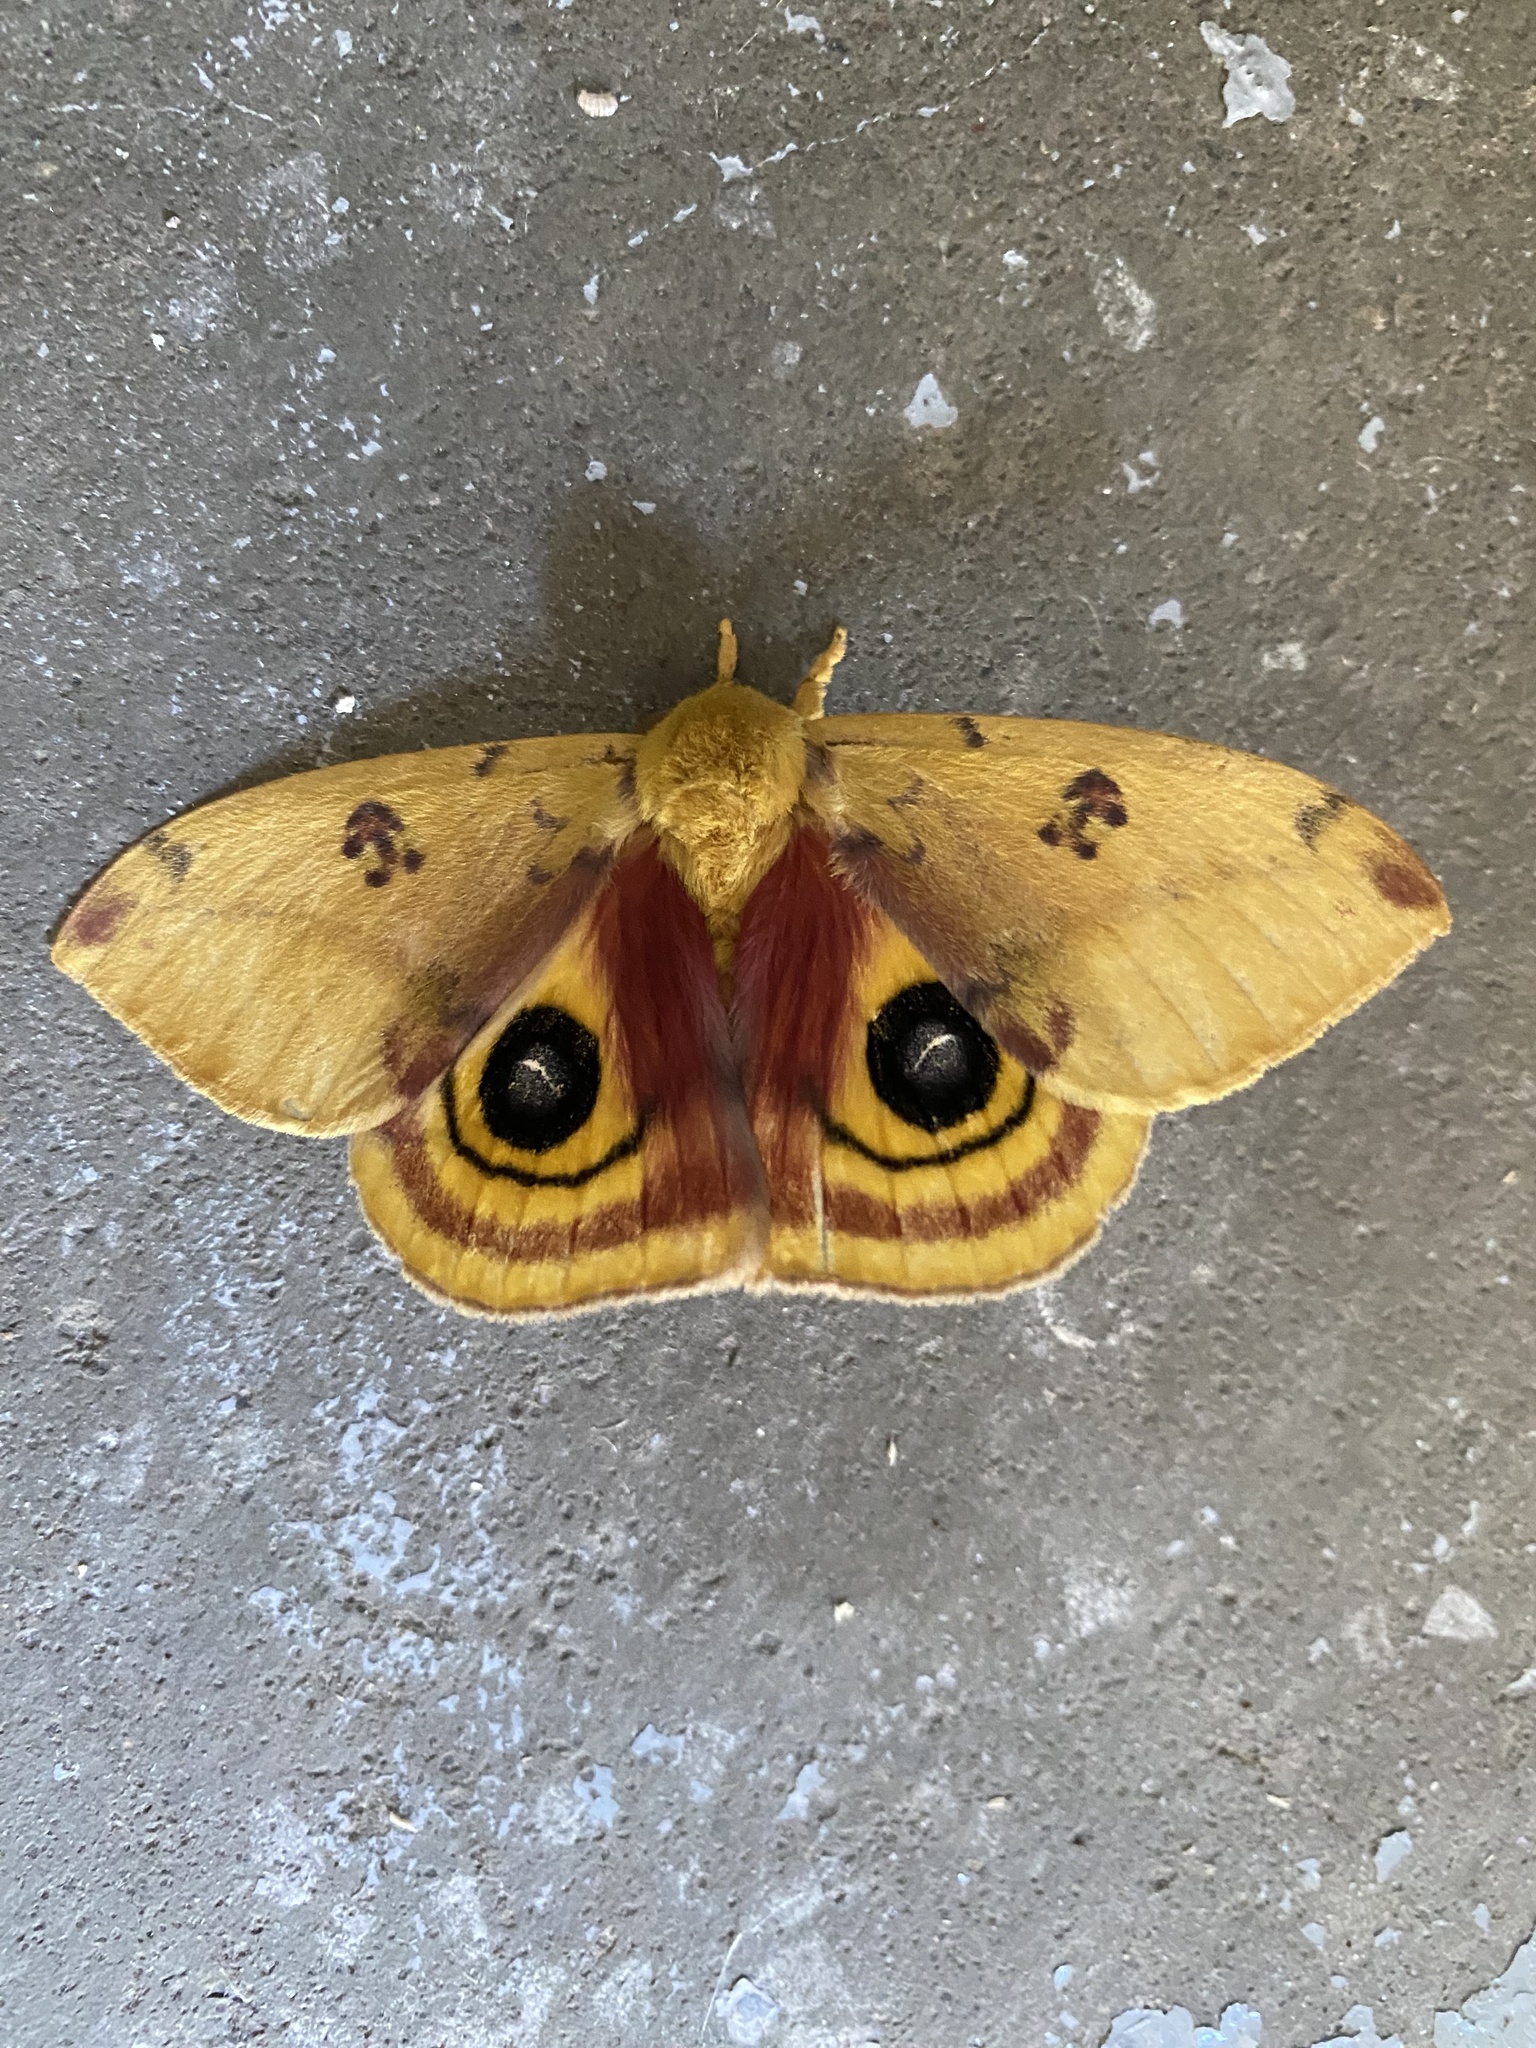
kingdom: Animalia
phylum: Arthropoda
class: Insecta
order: Lepidoptera
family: Saturniidae
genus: Automeris
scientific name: Automeris io
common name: Io moth
